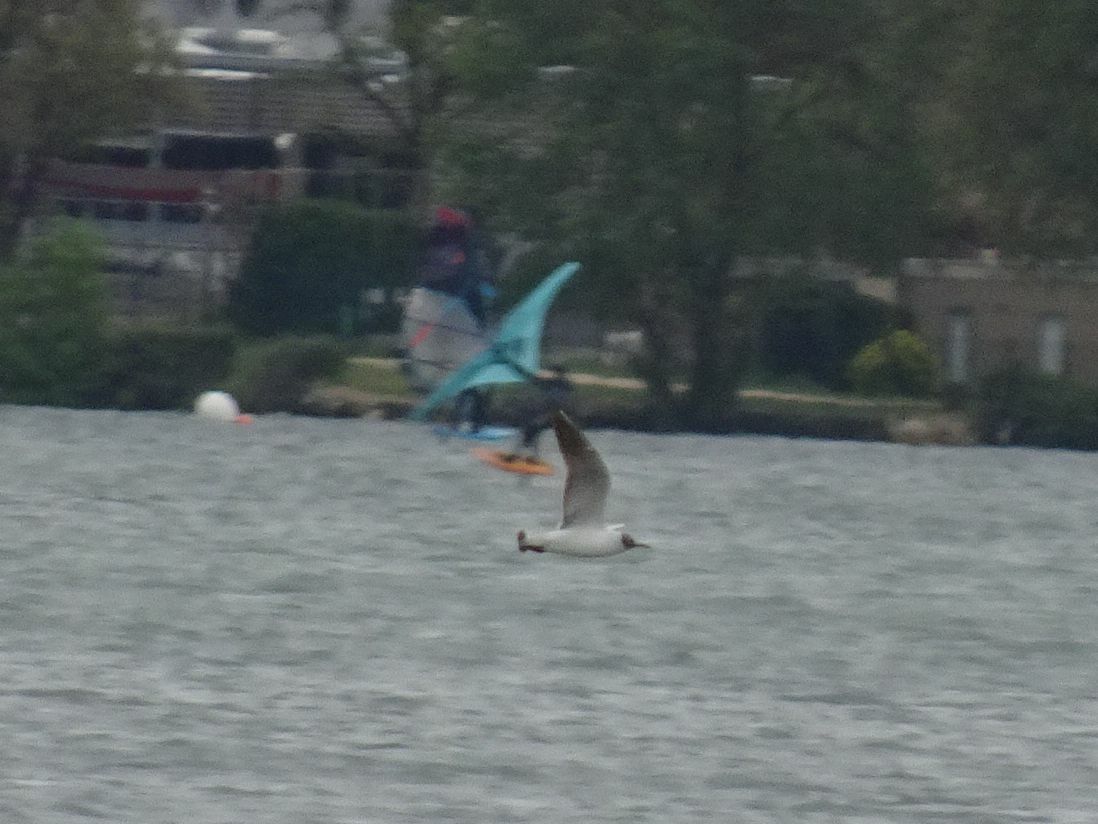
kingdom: Animalia
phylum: Chordata
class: Aves
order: Charadriiformes
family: Laridae
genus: Chroicocephalus
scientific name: Chroicocephalus ridibundus
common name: Black-headed gull
